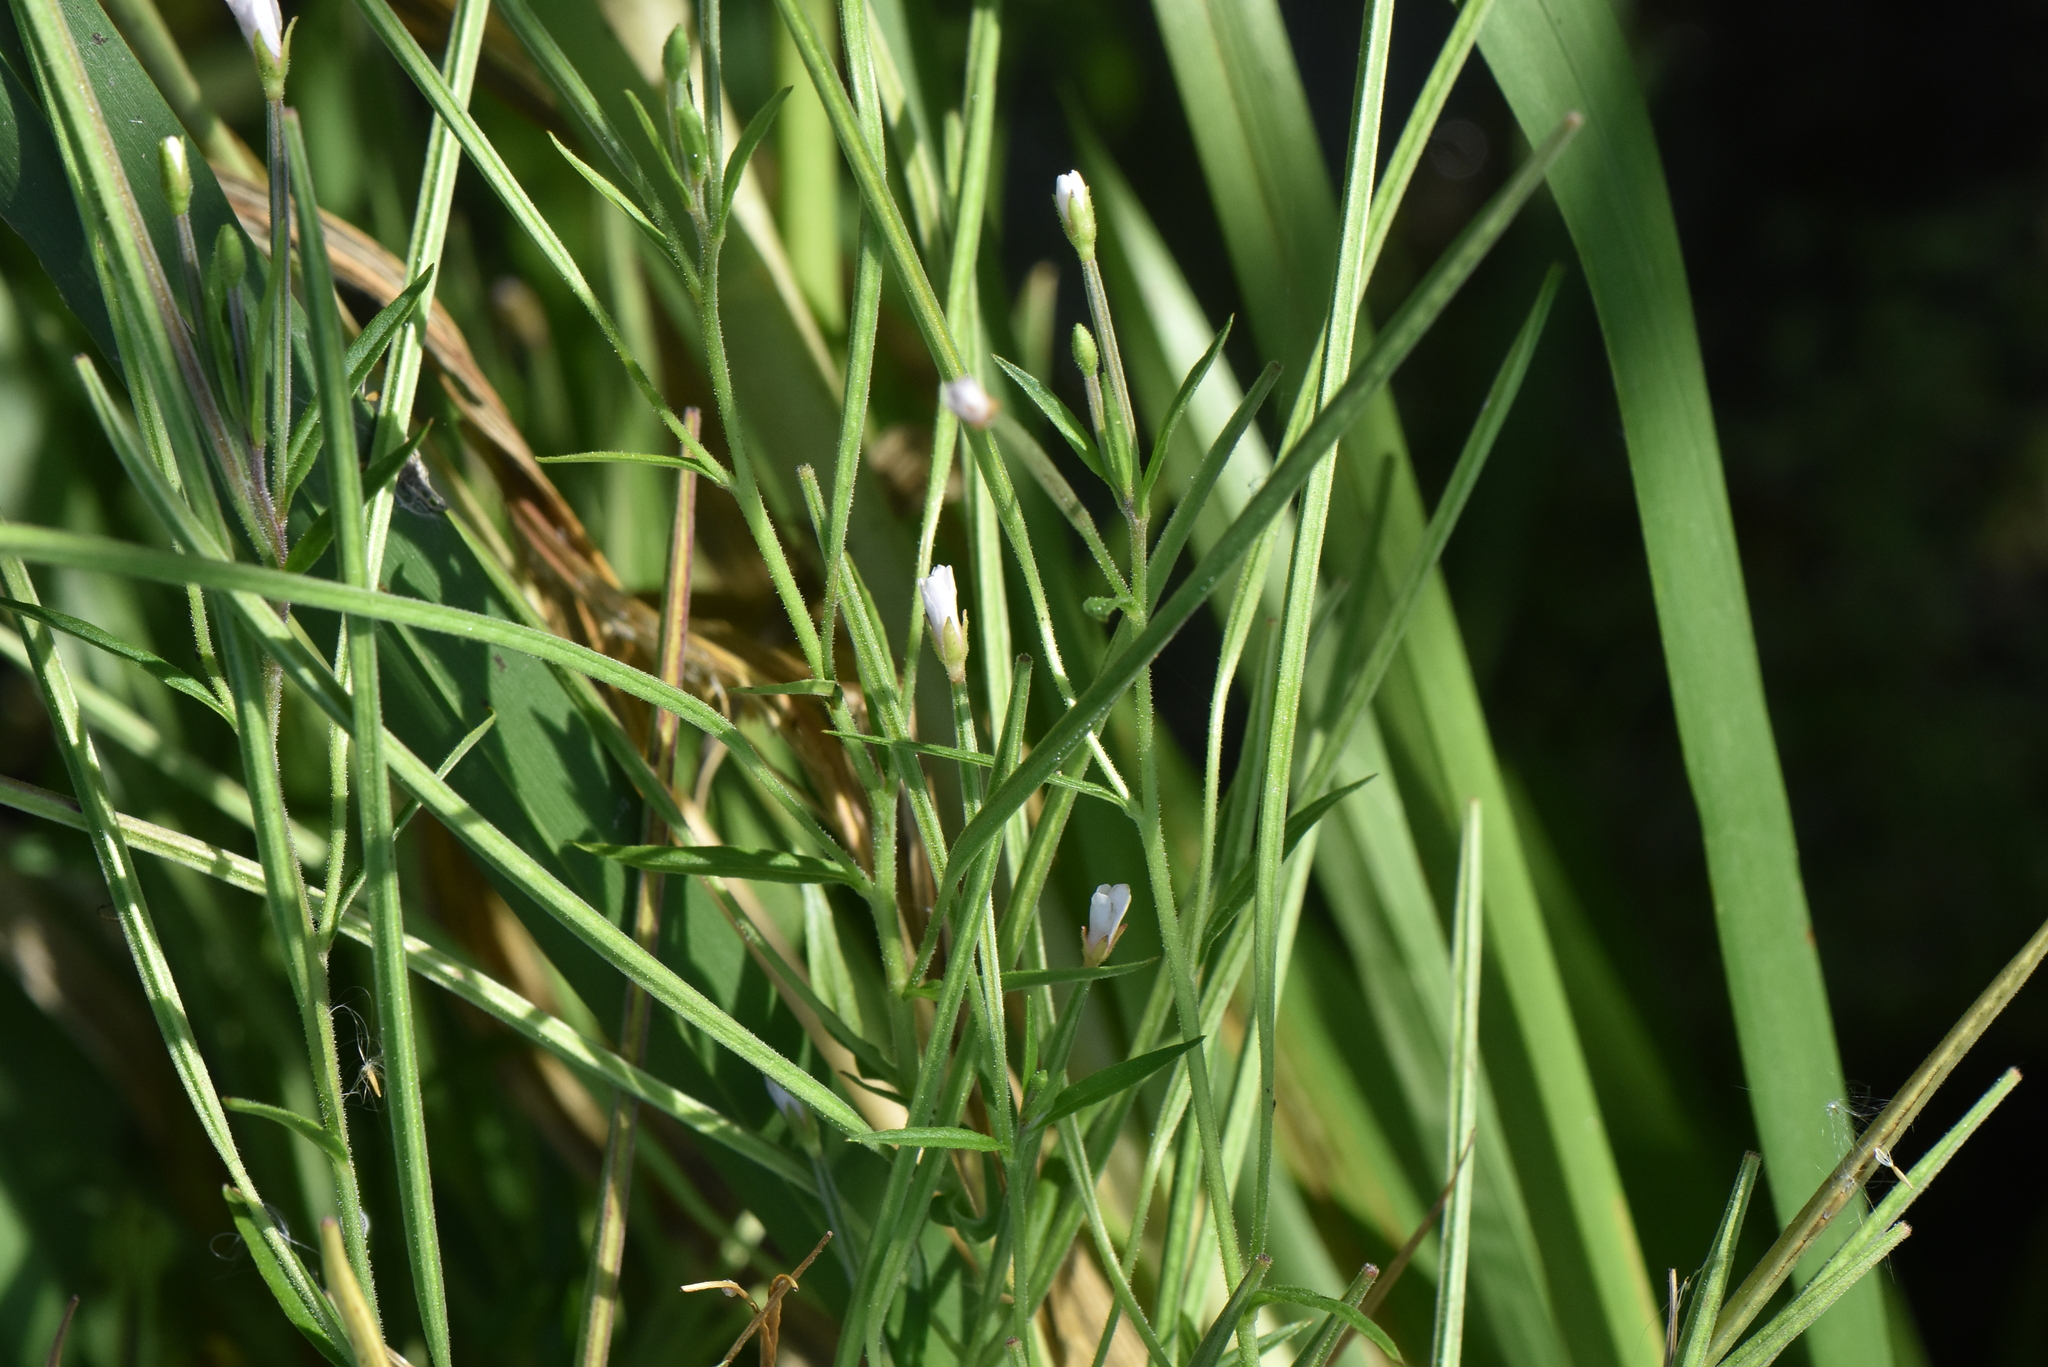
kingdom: Plantae
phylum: Tracheophyta
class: Magnoliopsida
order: Myrtales
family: Onagraceae
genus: Epilobium
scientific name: Epilobium palustre
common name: Marsh willowherb
